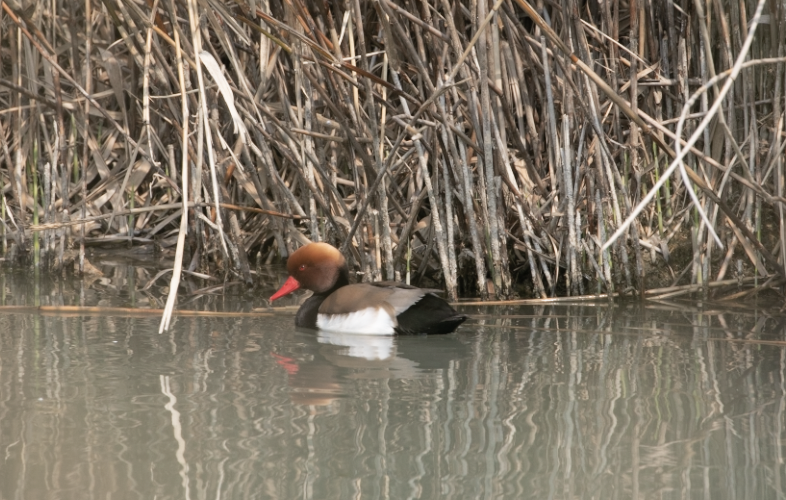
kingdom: Animalia
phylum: Chordata
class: Aves
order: Anseriformes
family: Anatidae
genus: Netta
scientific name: Netta rufina
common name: Red-crested pochard
